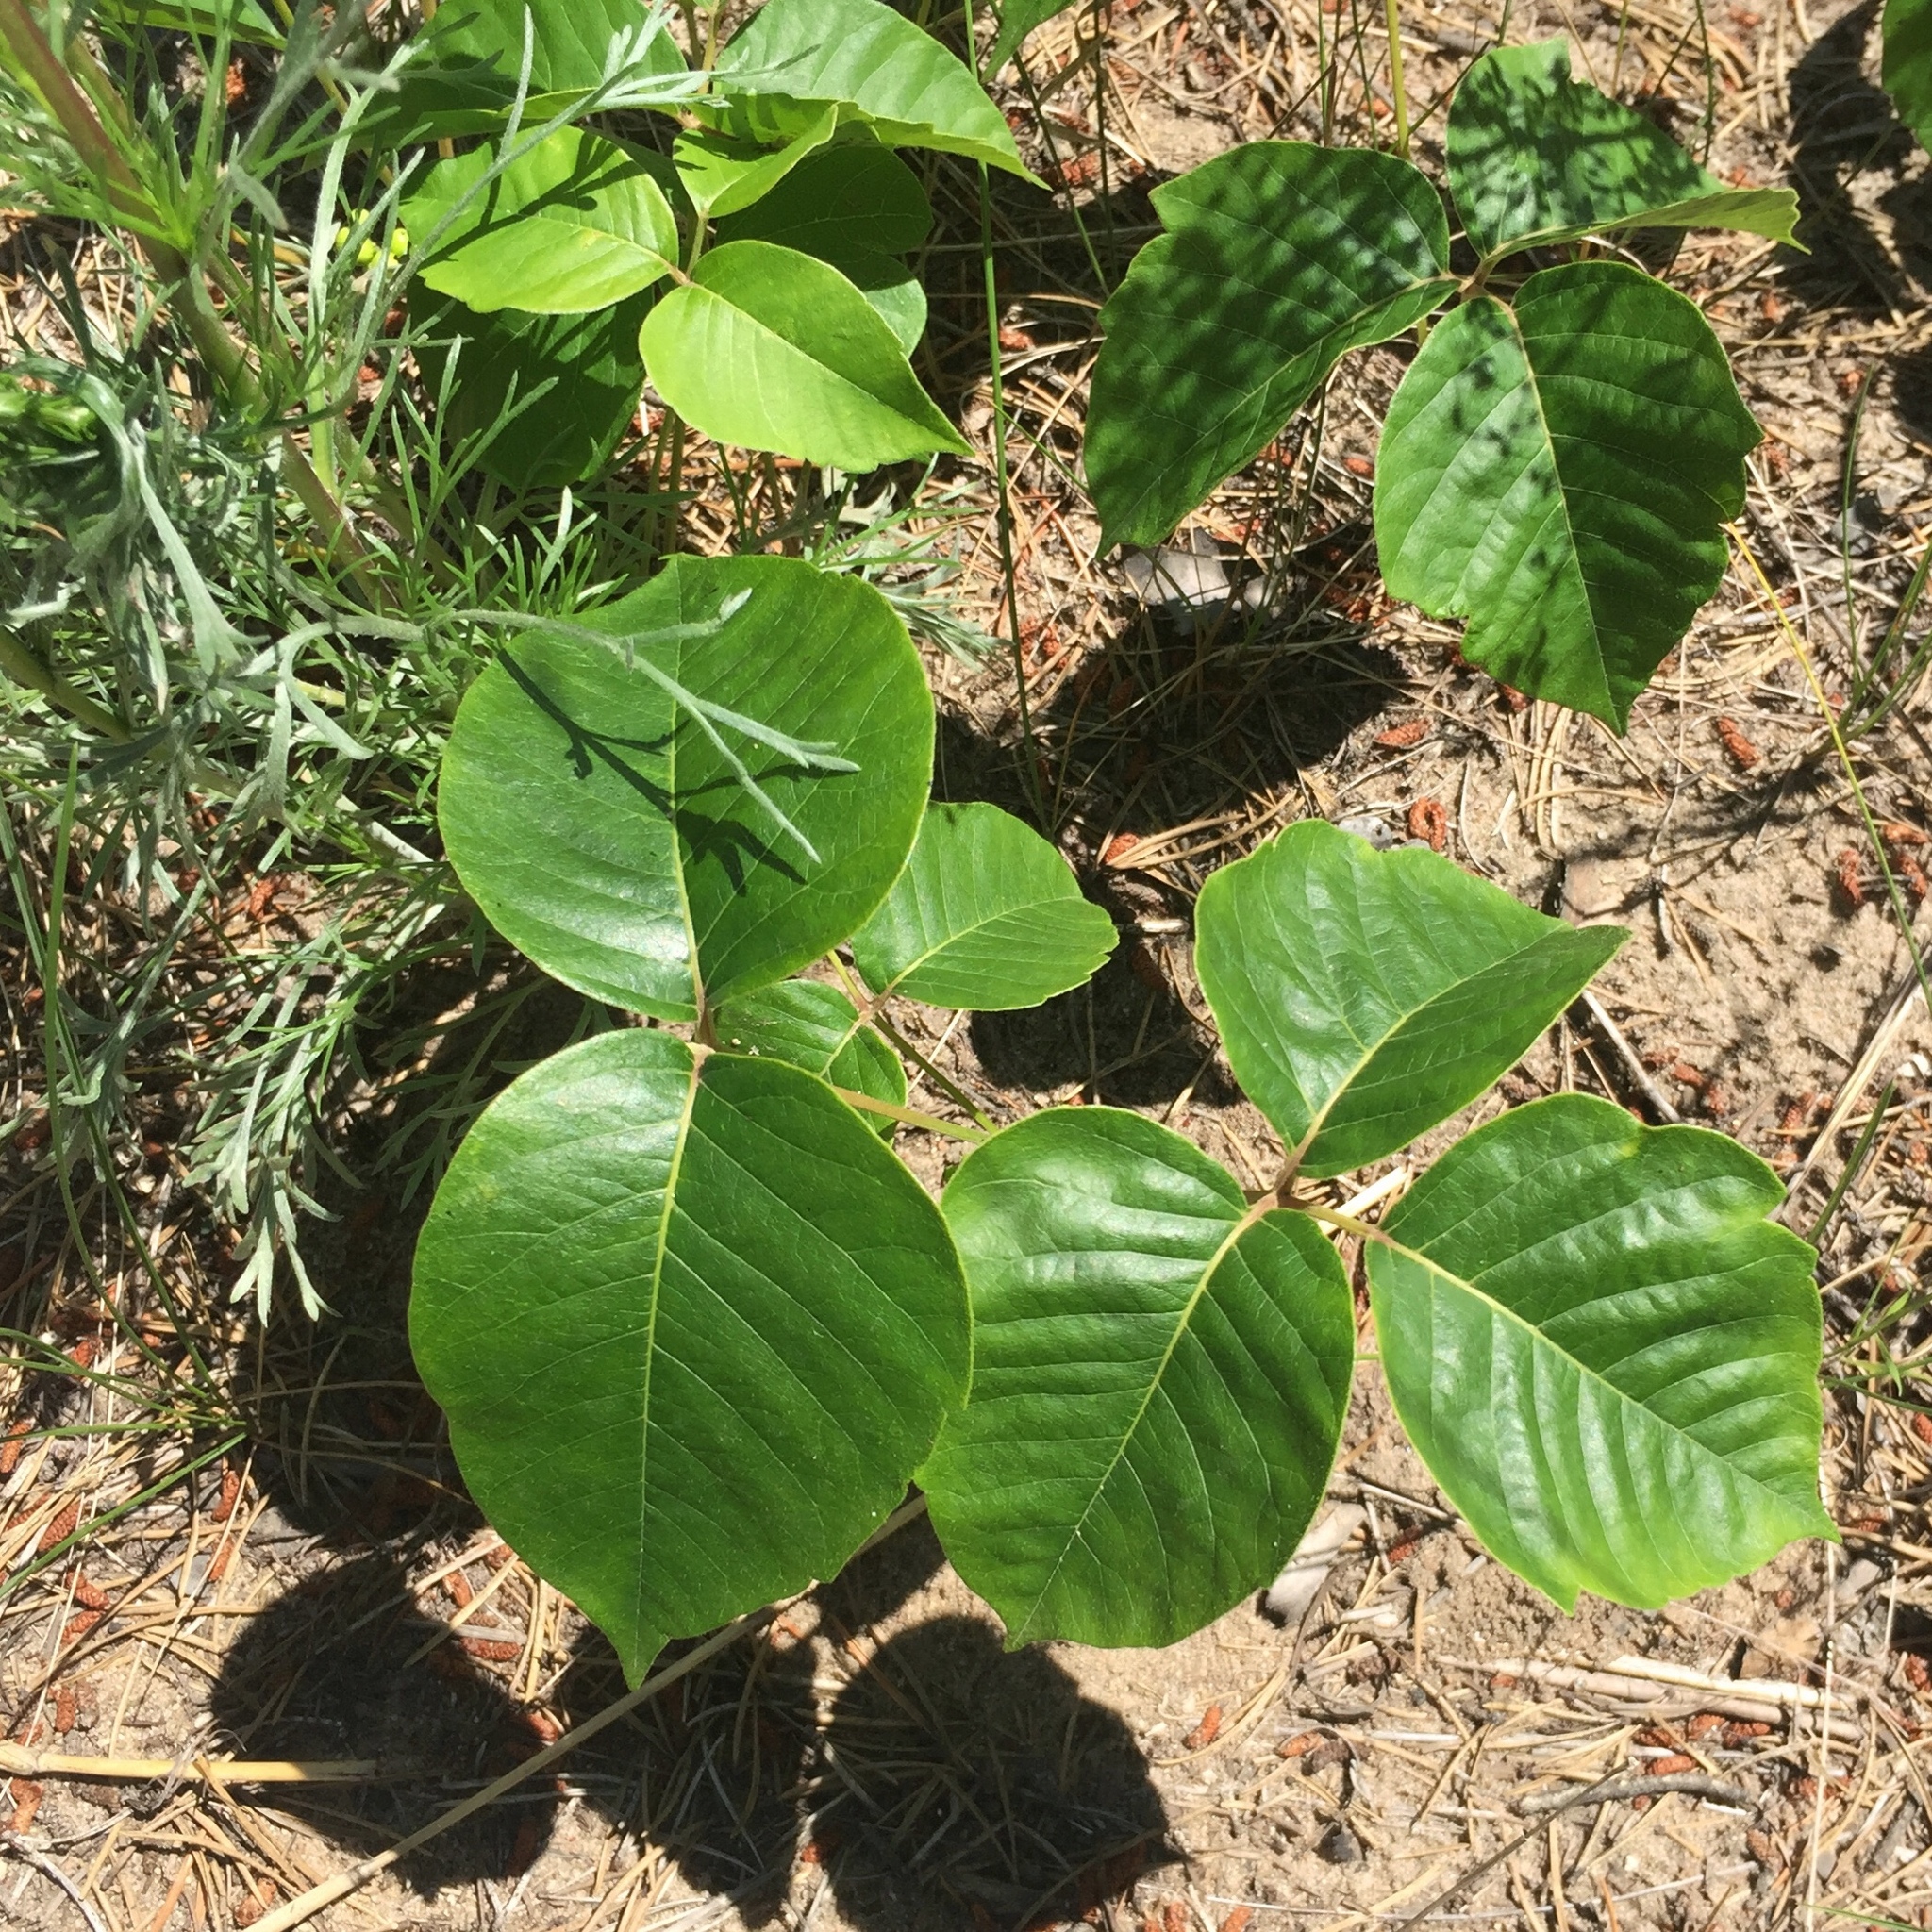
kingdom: Plantae
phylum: Tracheophyta
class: Magnoliopsida
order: Sapindales
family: Anacardiaceae
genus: Toxicodendron
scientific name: Toxicodendron rydbergii
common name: Rydberg's poison-ivy
